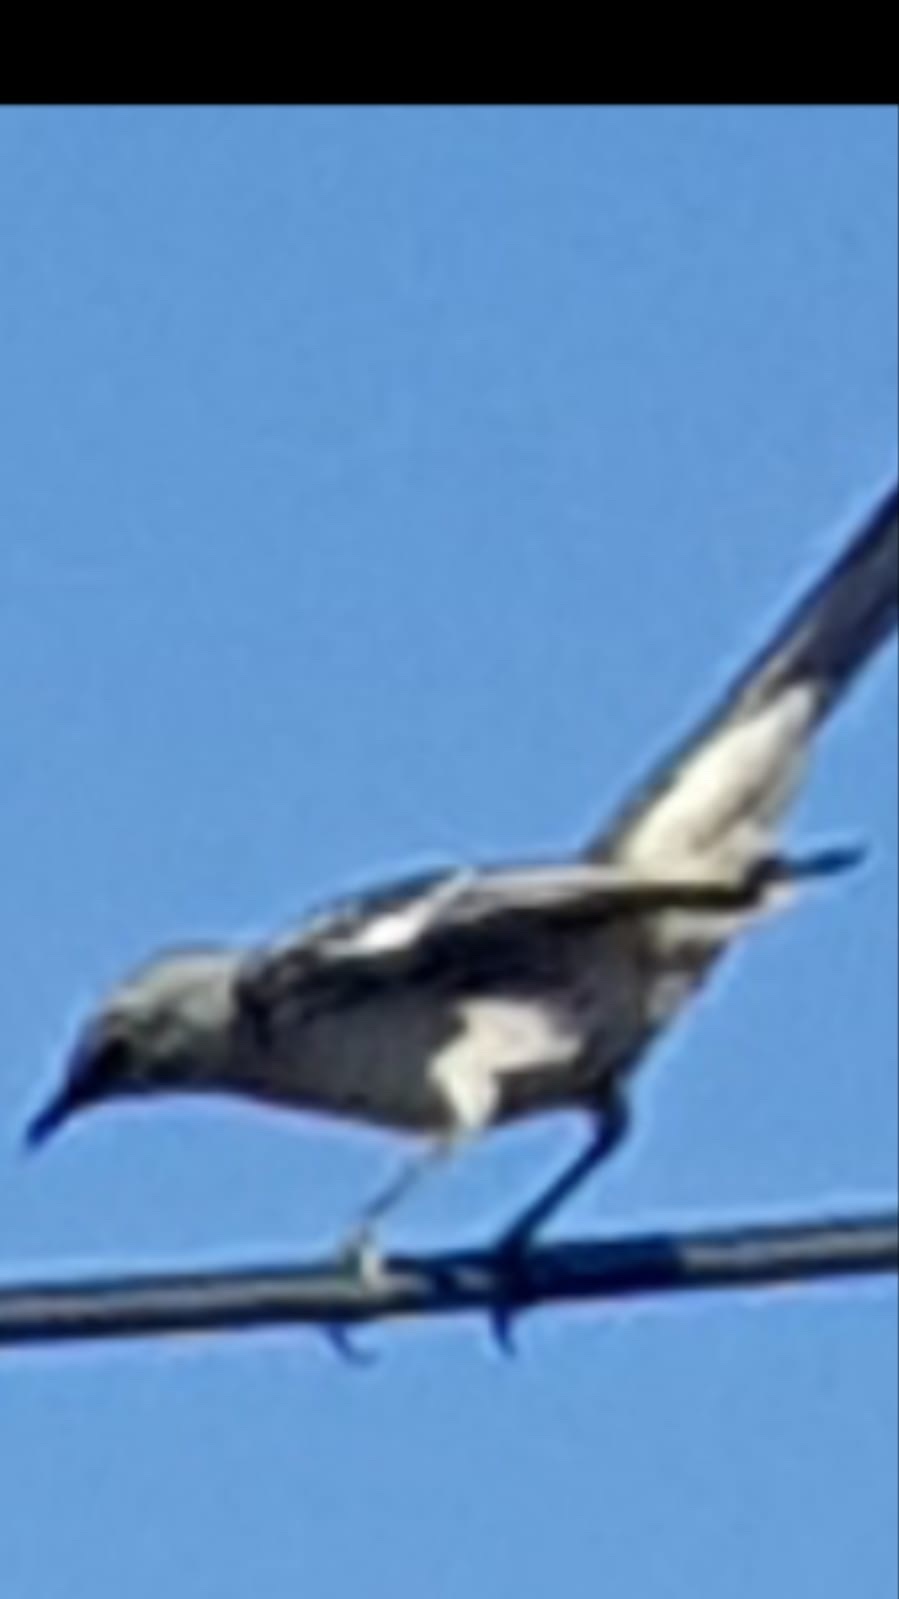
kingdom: Animalia
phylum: Chordata
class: Aves
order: Passeriformes
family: Mimidae
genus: Mimus
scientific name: Mimus polyglottos
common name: Northern mockingbird
